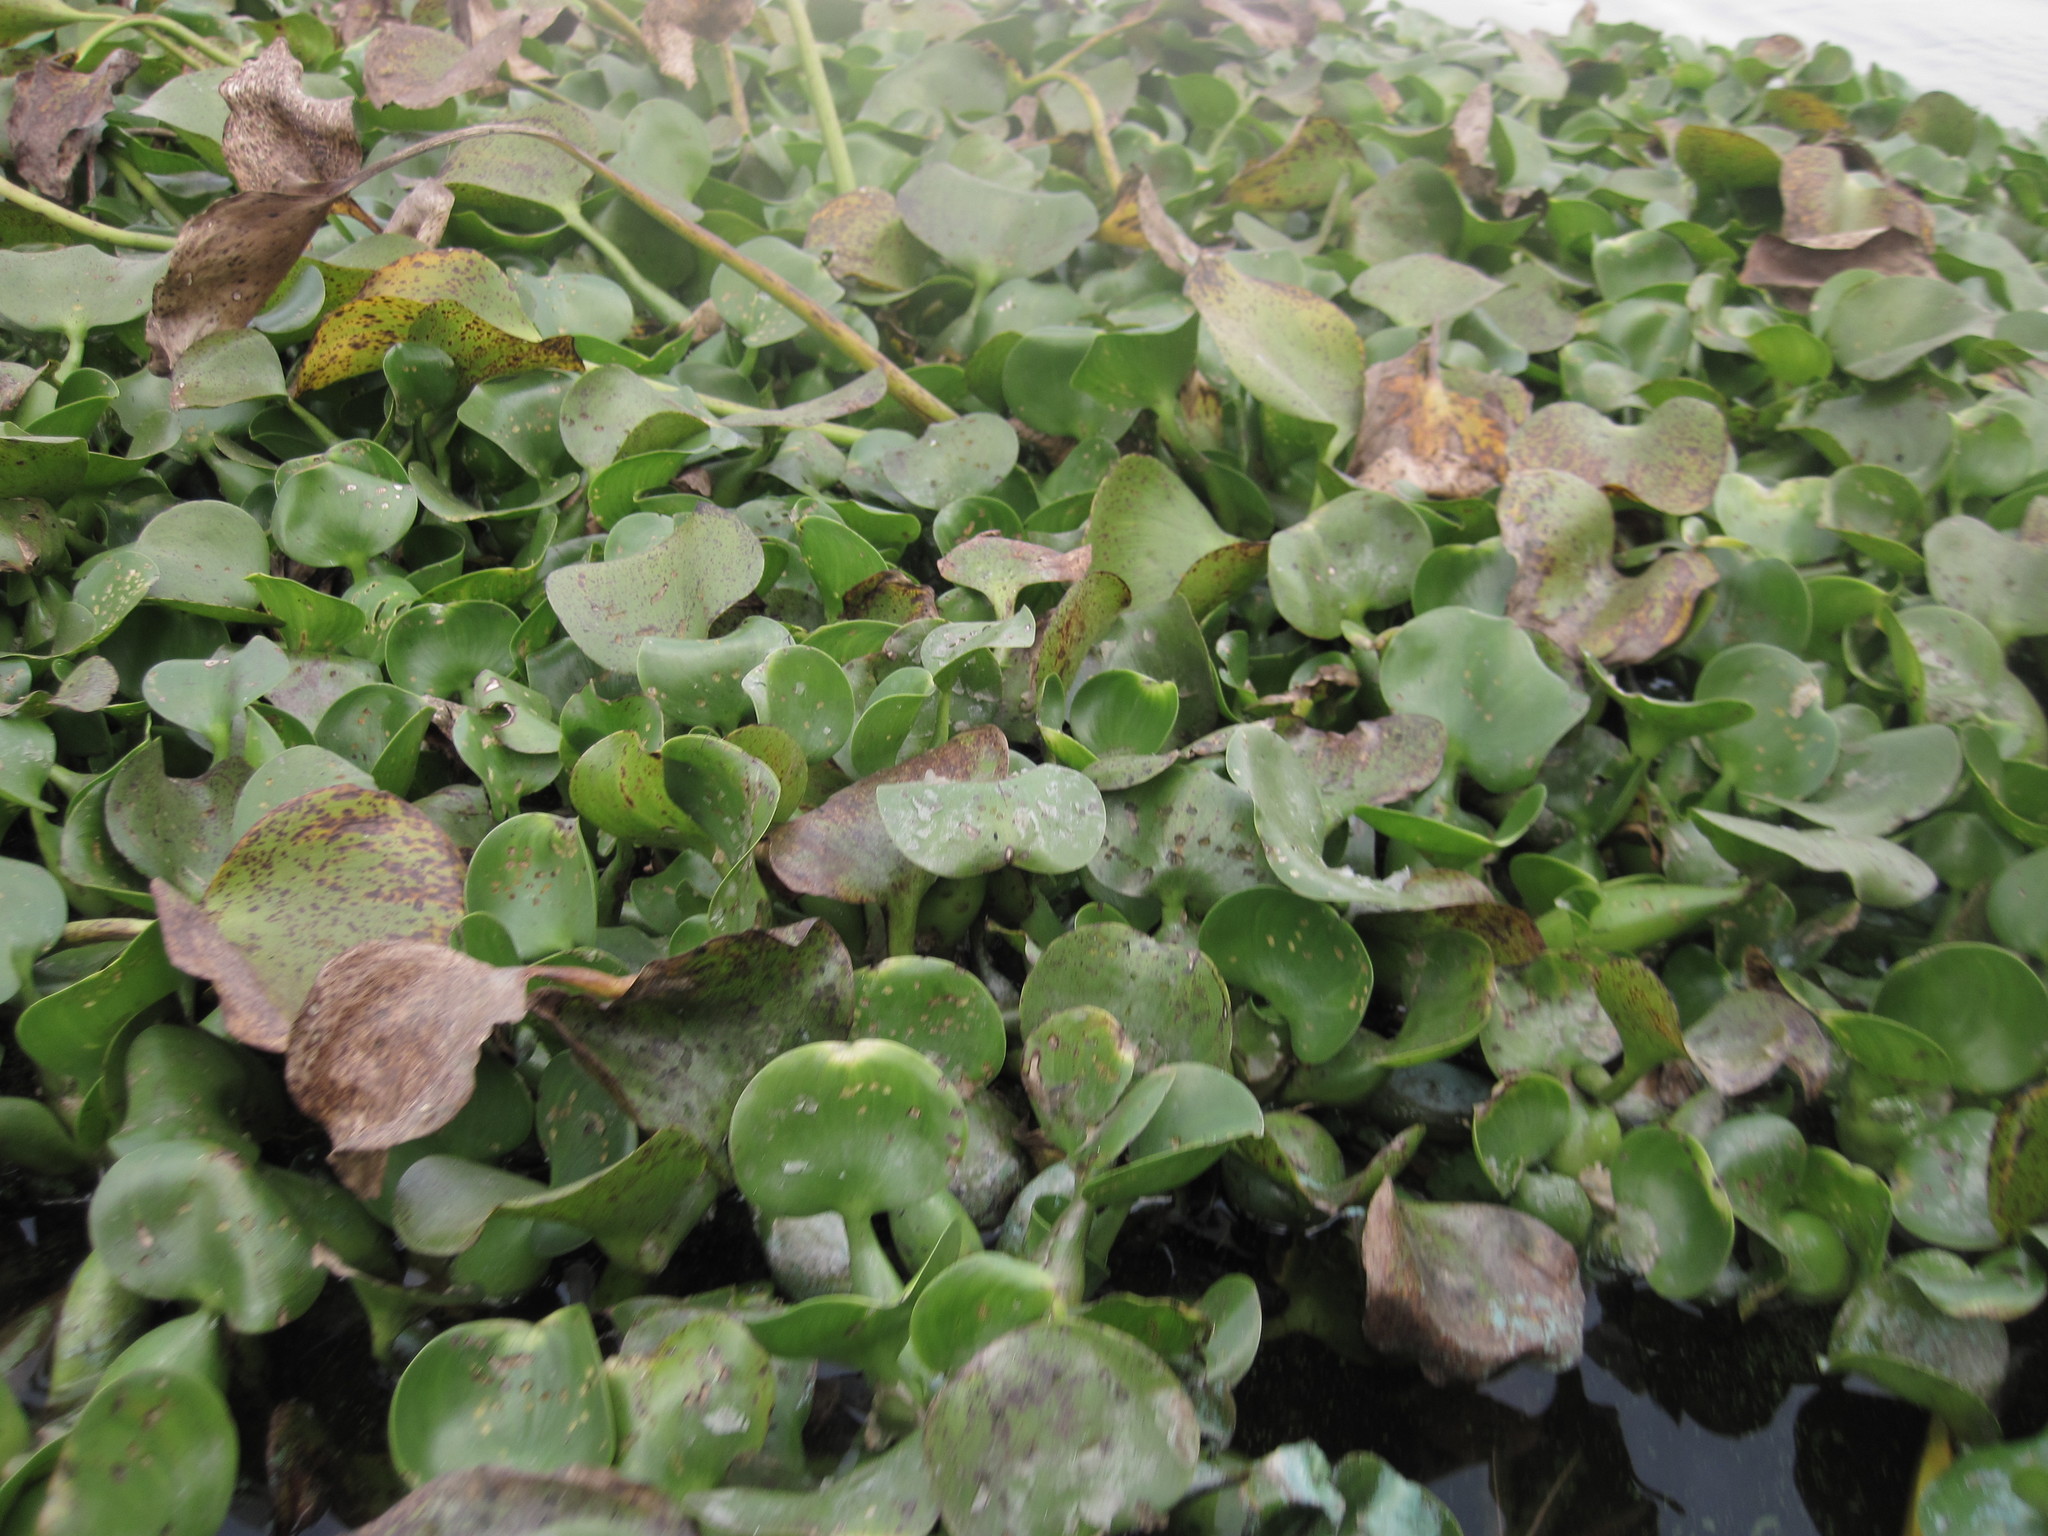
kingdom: Plantae
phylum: Tracheophyta
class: Liliopsida
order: Commelinales
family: Pontederiaceae
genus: Pontederia
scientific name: Pontederia crassipes
